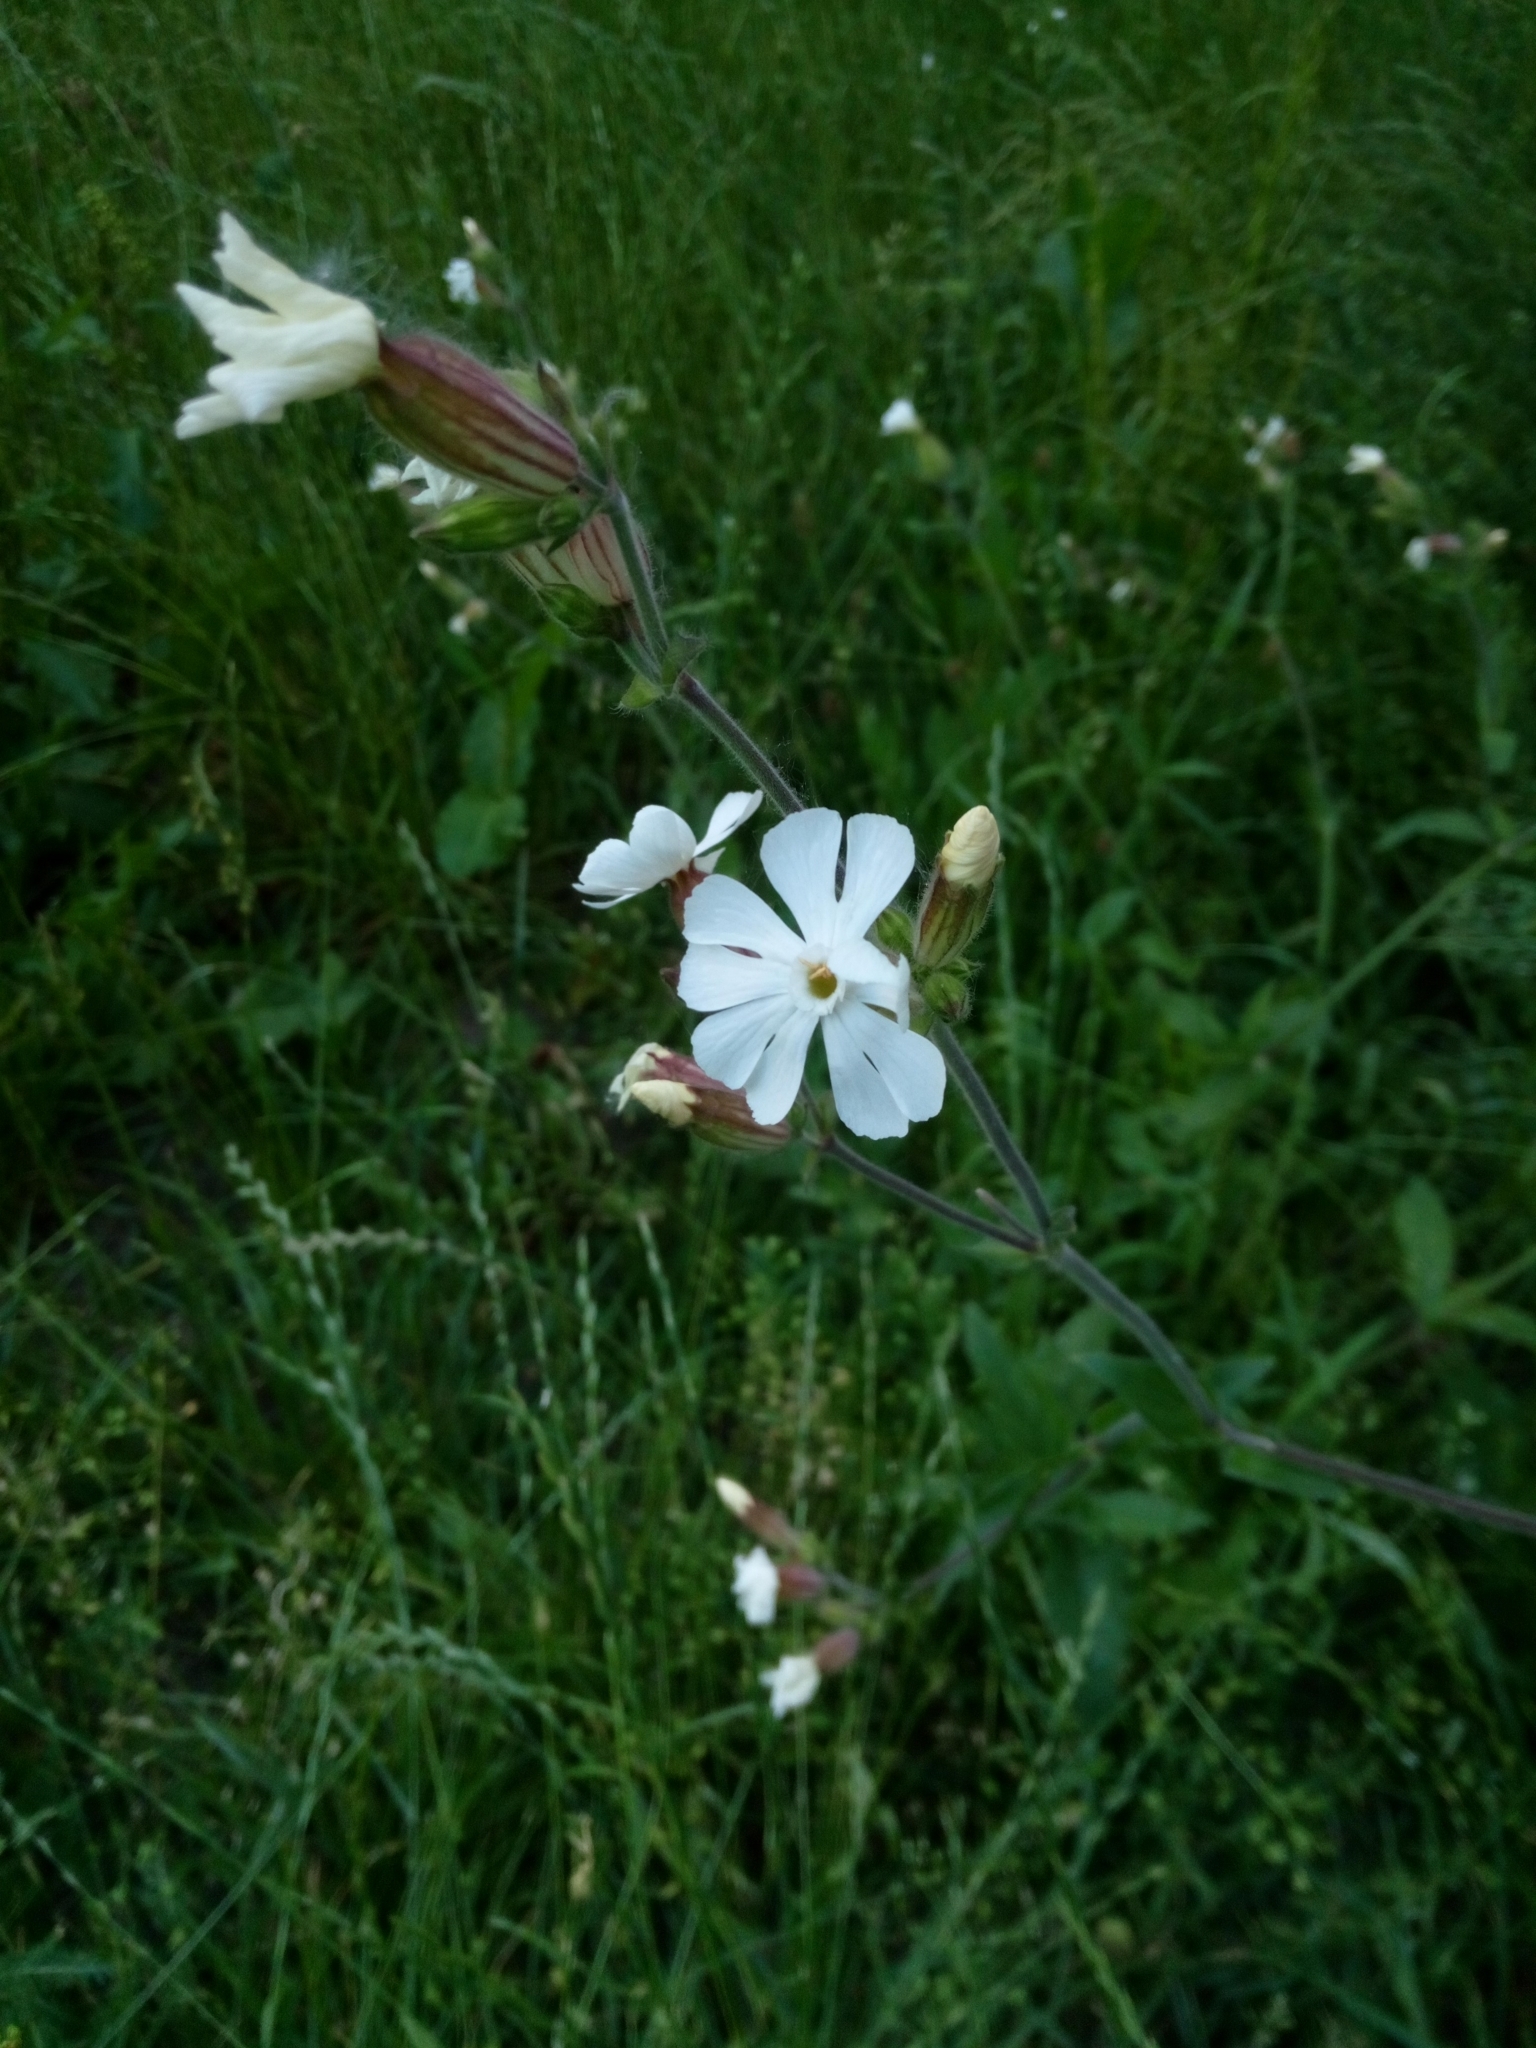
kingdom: Plantae
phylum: Tracheophyta
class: Magnoliopsida
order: Caryophyllales
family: Caryophyllaceae
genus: Silene
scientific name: Silene latifolia
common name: White campion
